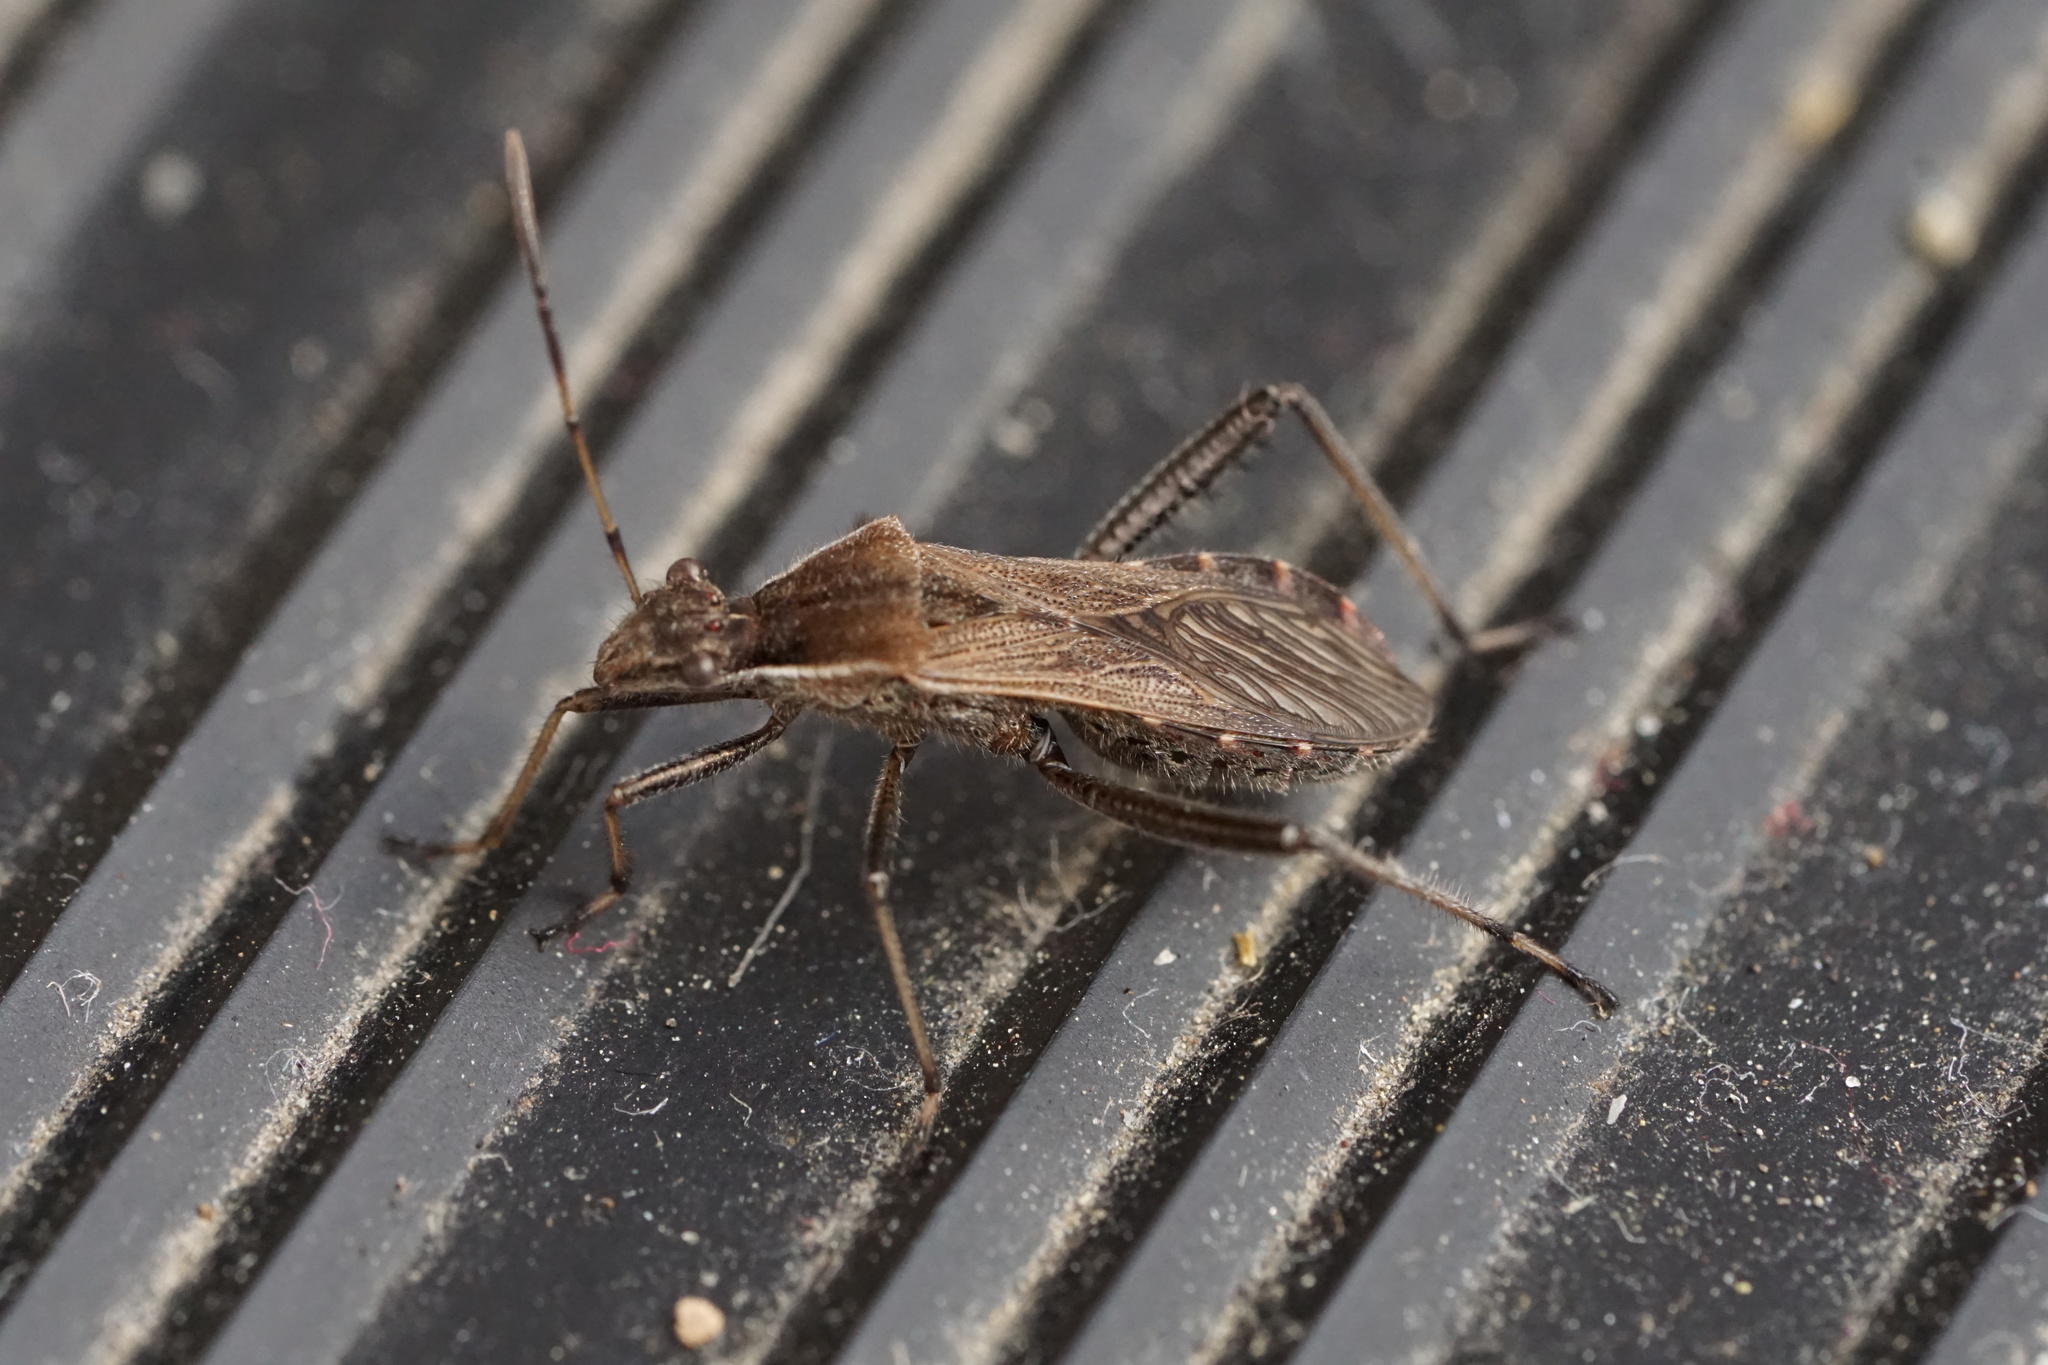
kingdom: Animalia
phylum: Arthropoda
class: Insecta
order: Hemiptera
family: Alydidae
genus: Alydus
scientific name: Alydus pilosulus
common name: Broad-headed bug
